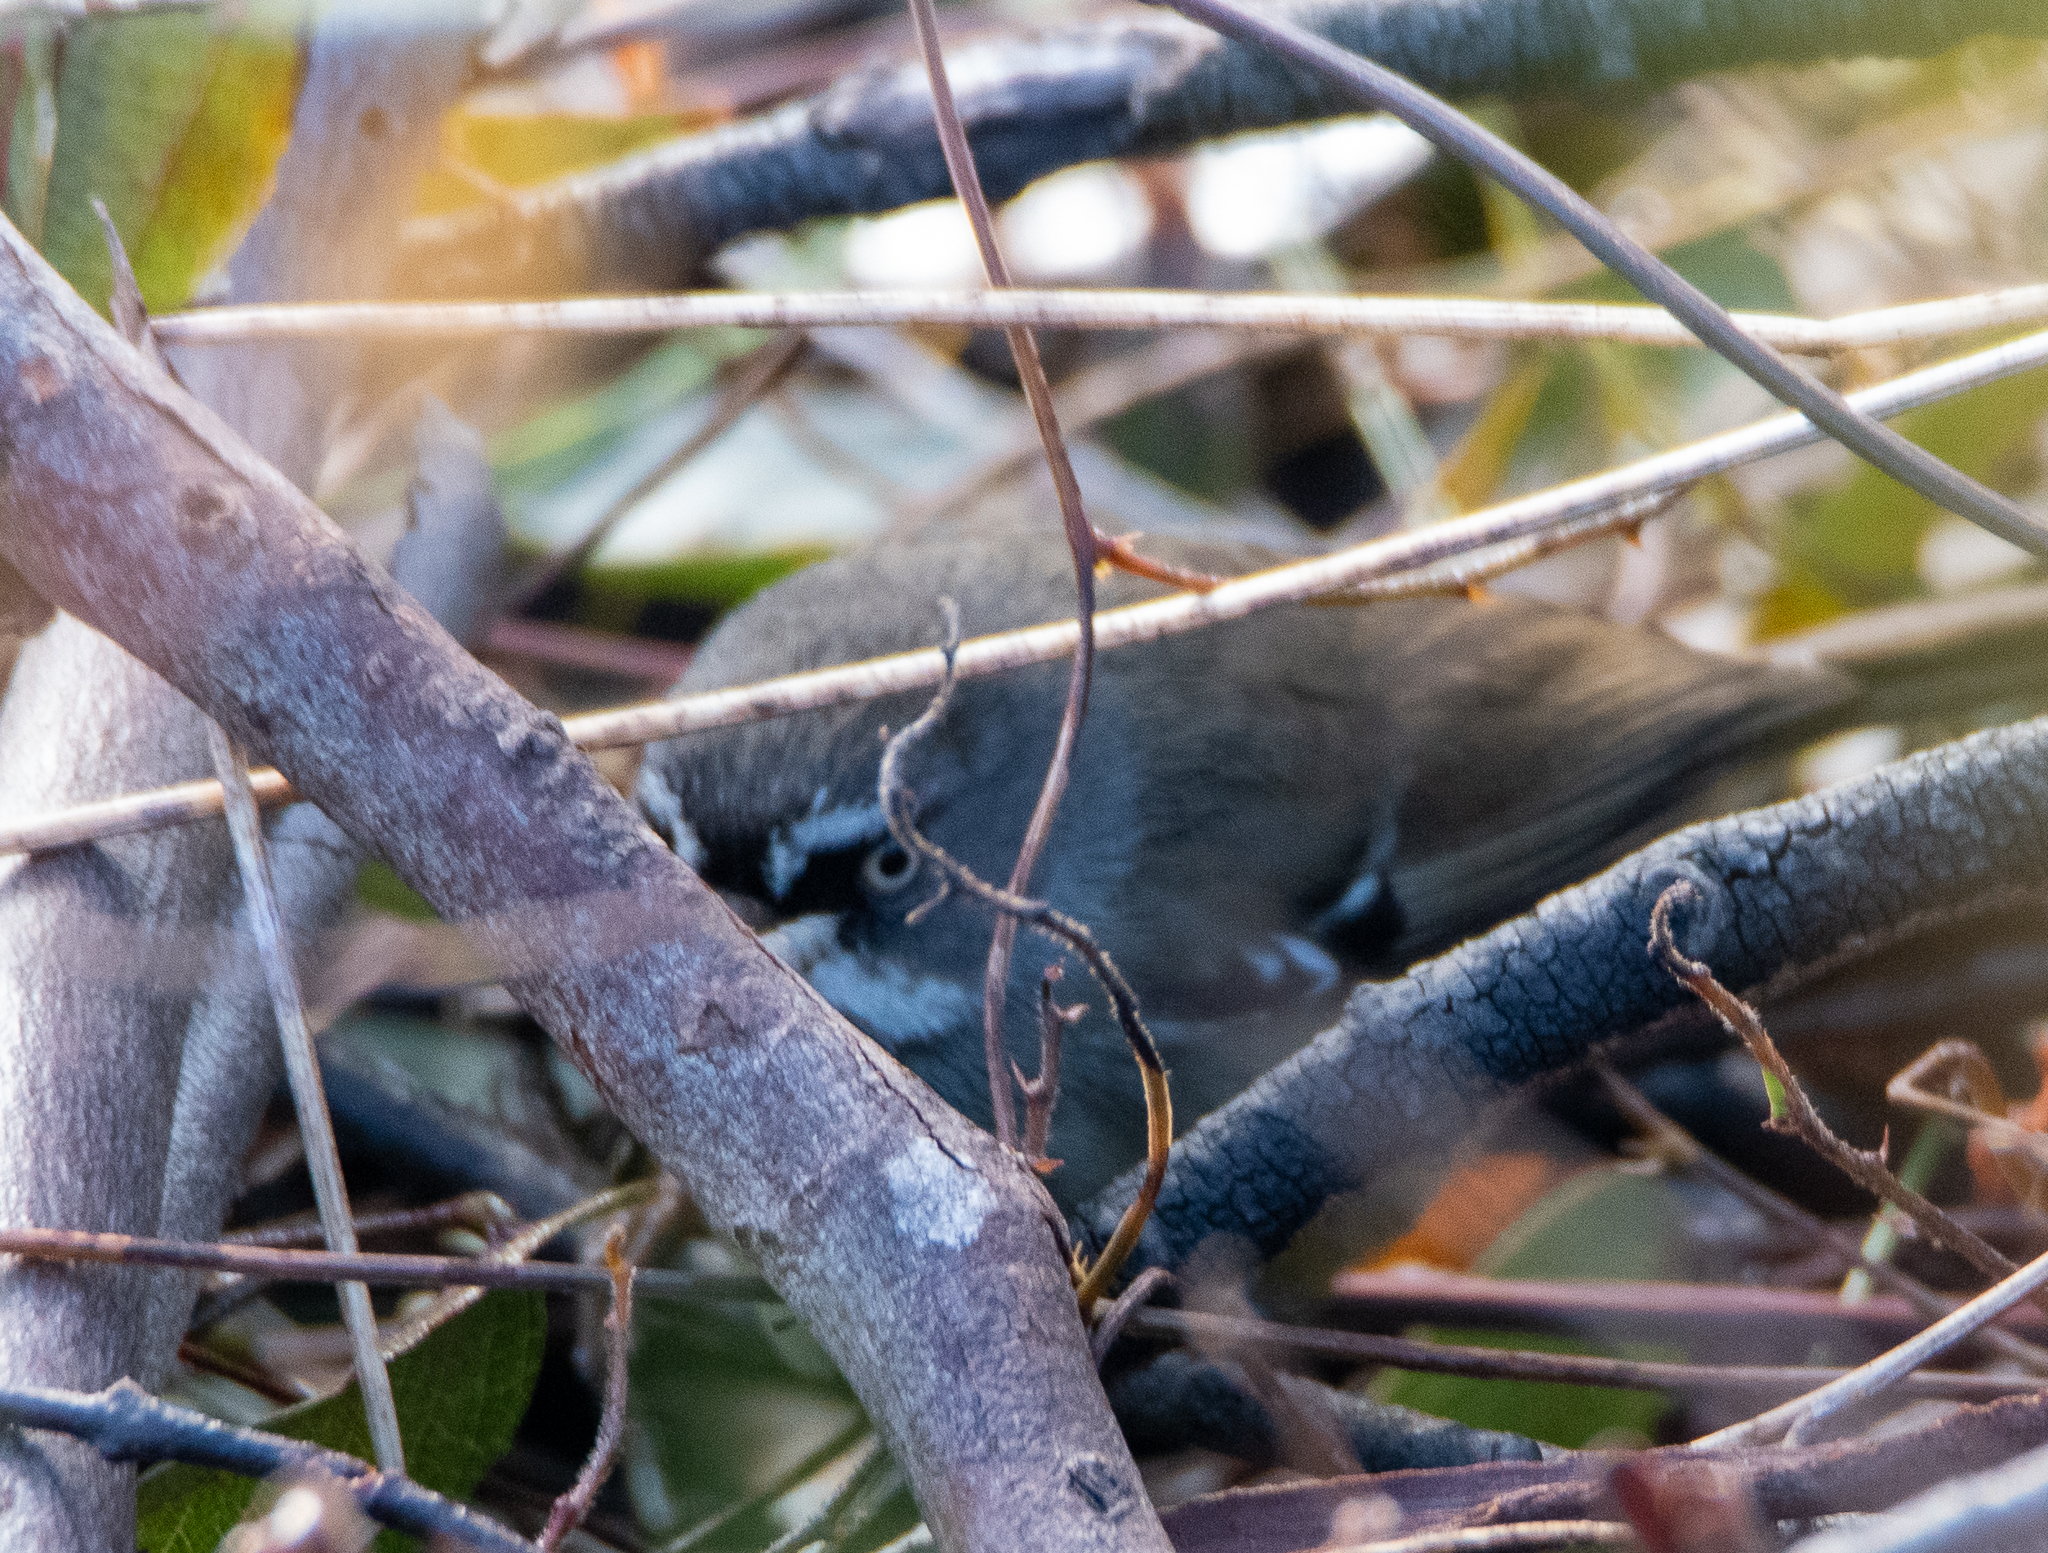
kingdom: Animalia
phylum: Chordata
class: Aves
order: Passeriformes
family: Acanthizidae
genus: Sericornis
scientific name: Sericornis frontalis
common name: White-browed scrubwren
